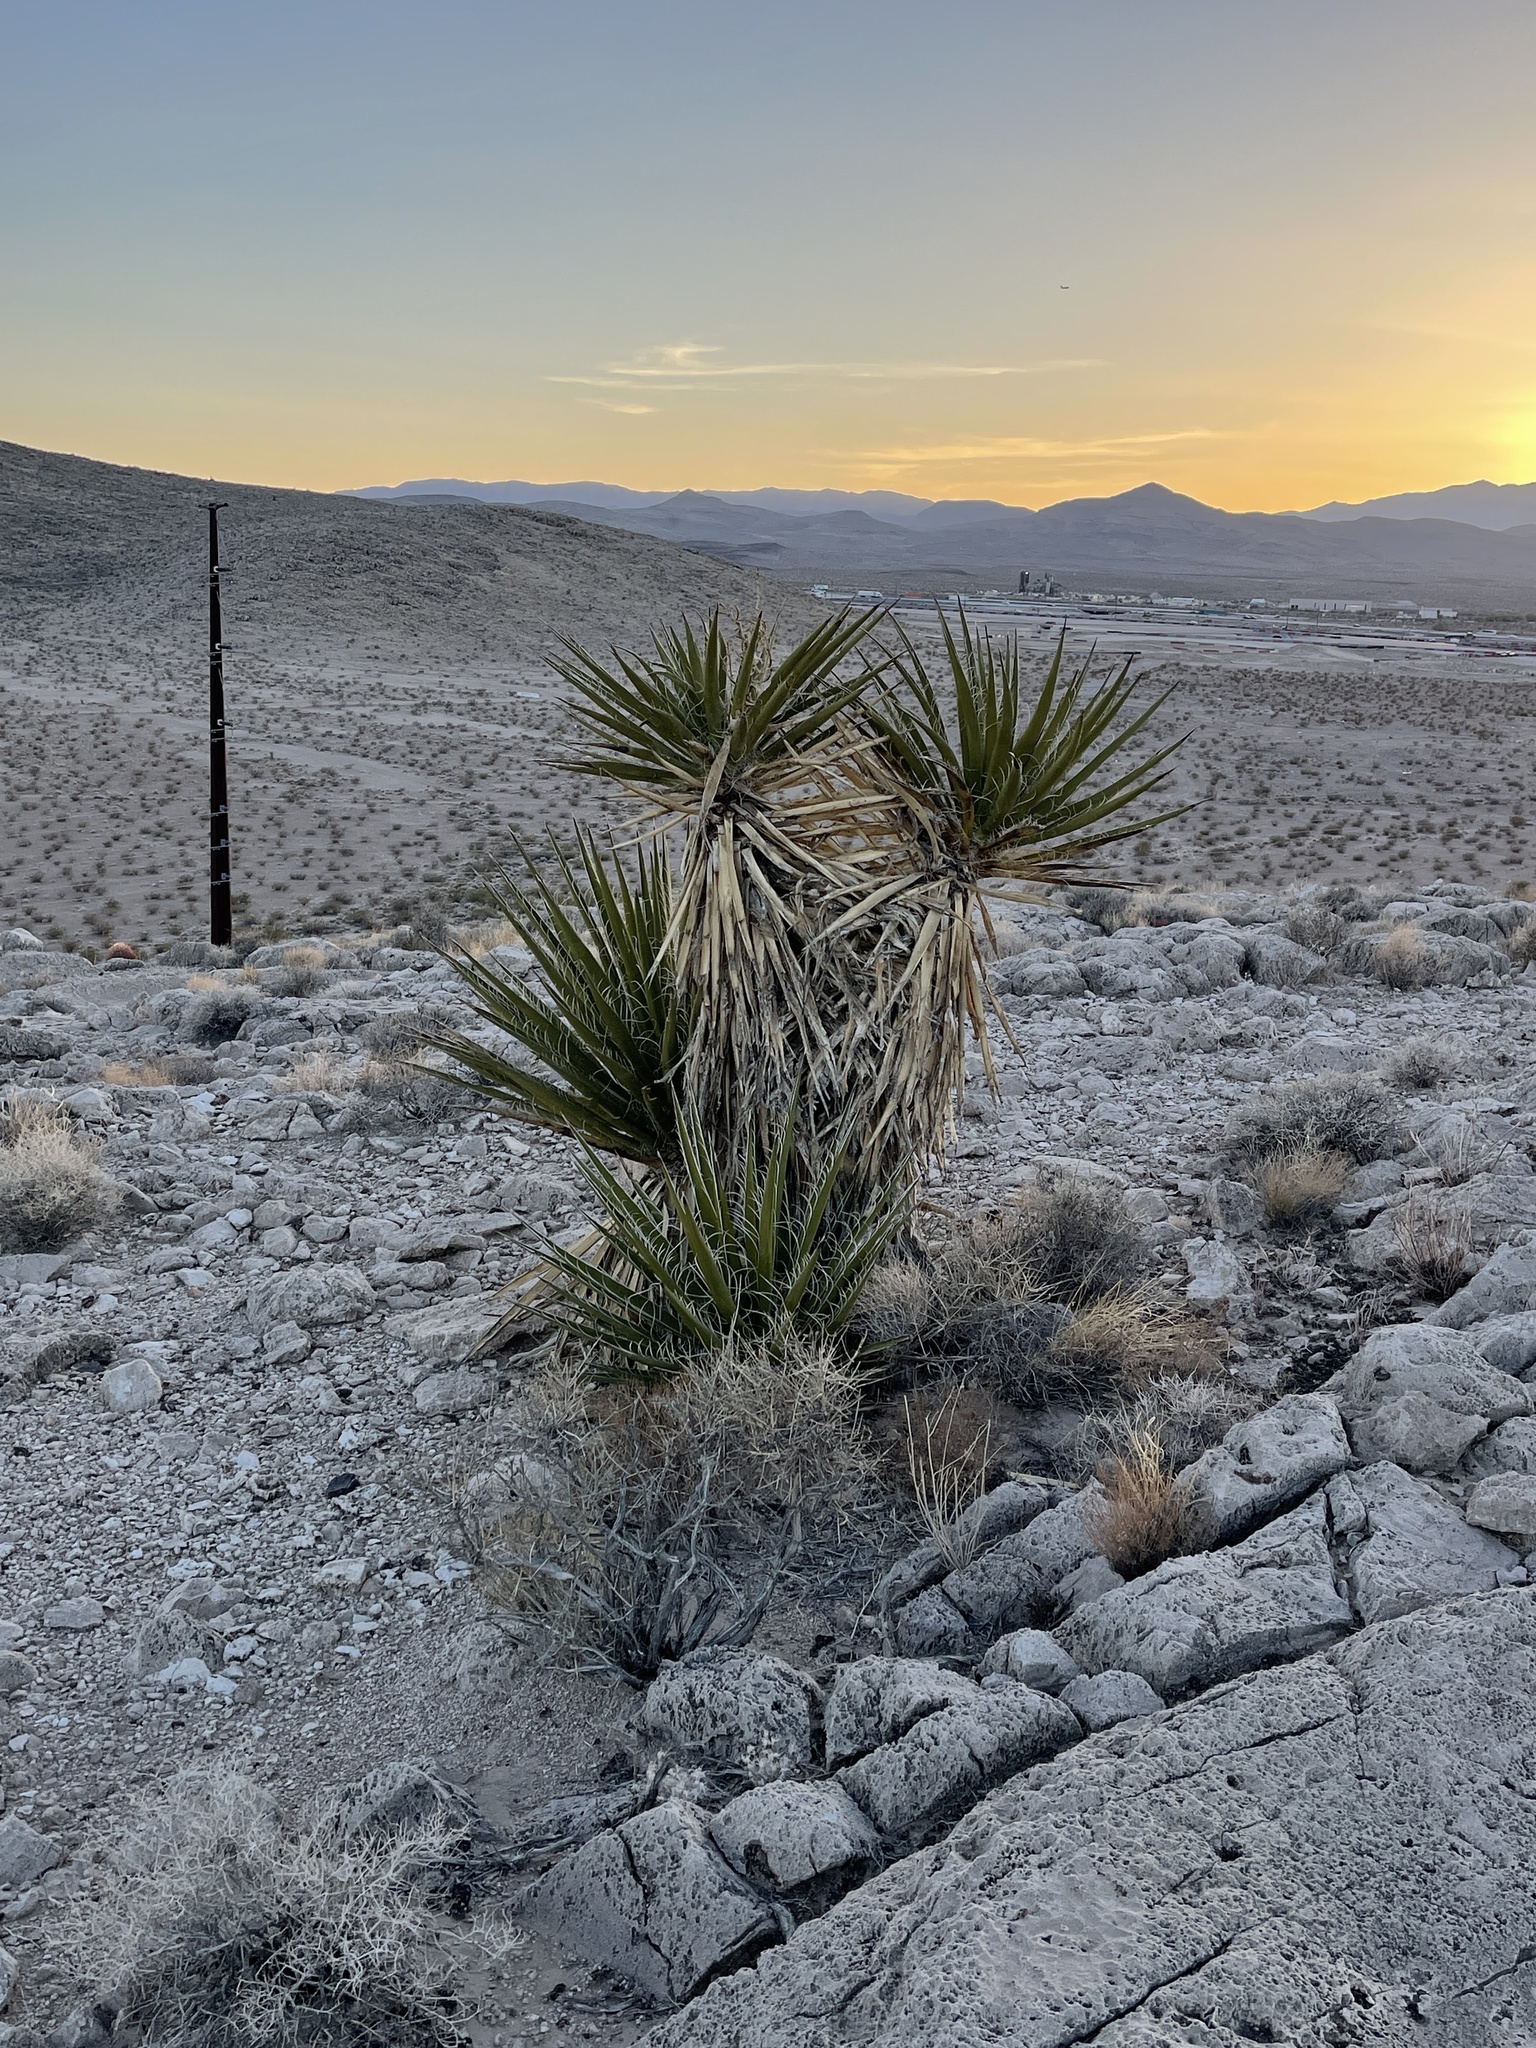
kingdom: Plantae
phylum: Tracheophyta
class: Liliopsida
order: Asparagales
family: Asparagaceae
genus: Yucca
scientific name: Yucca schidigera
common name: Mojave yucca
